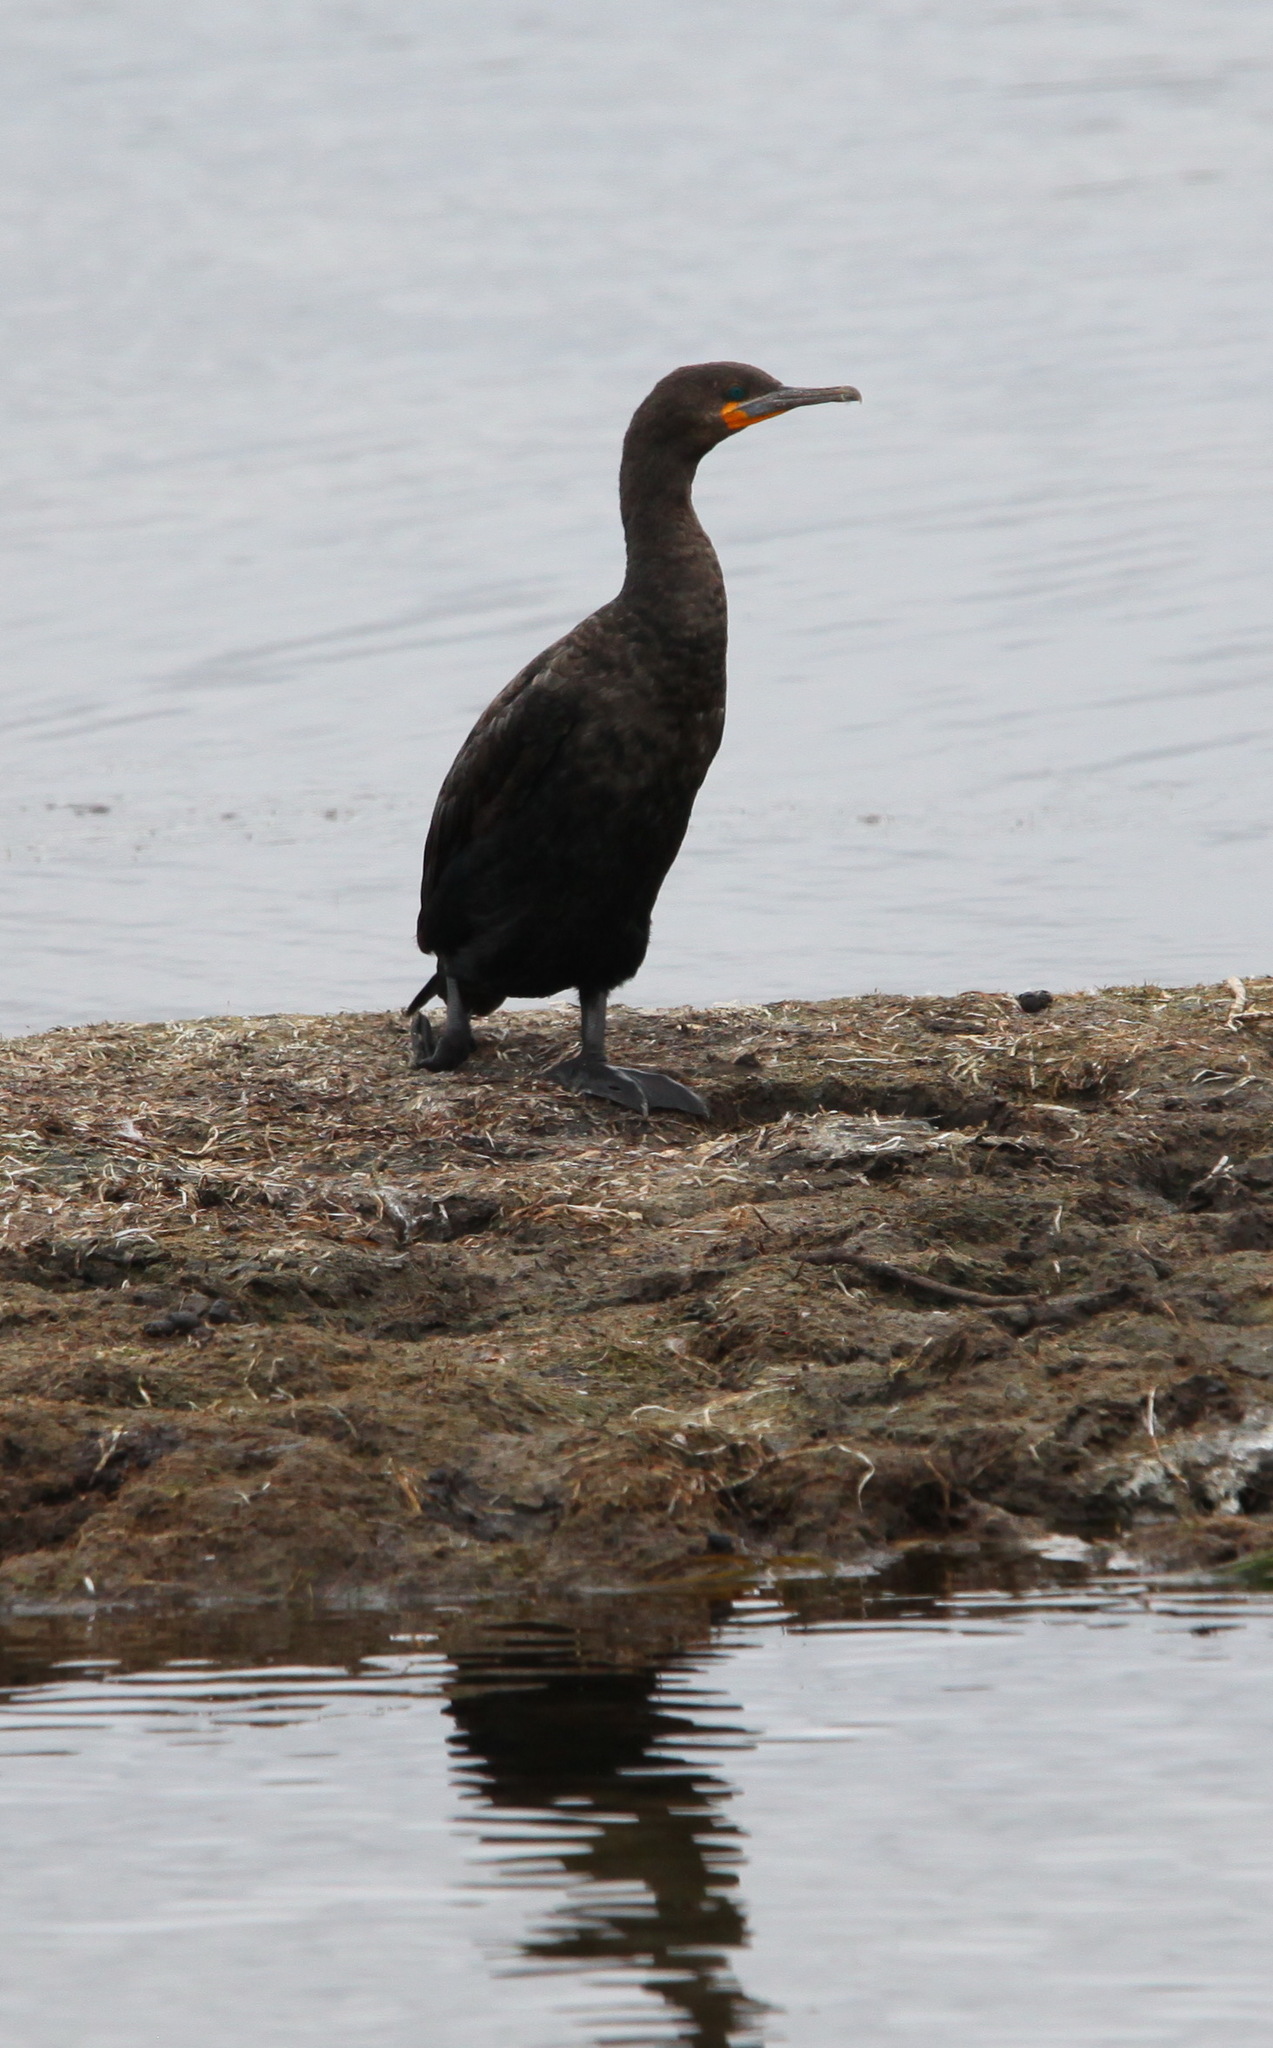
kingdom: Animalia
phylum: Chordata
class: Aves
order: Suliformes
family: Phalacrocoracidae
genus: Phalacrocorax
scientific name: Phalacrocorax capensis
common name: Cape cormorant
